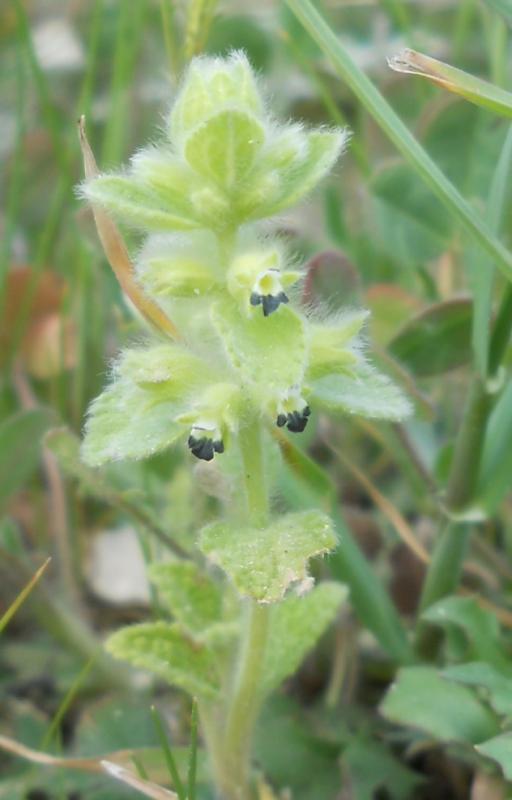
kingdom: Plantae
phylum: Tracheophyta
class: Magnoliopsida
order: Lamiales
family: Lamiaceae
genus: Sideritis
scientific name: Sideritis lanata
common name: Hairy ironwort
